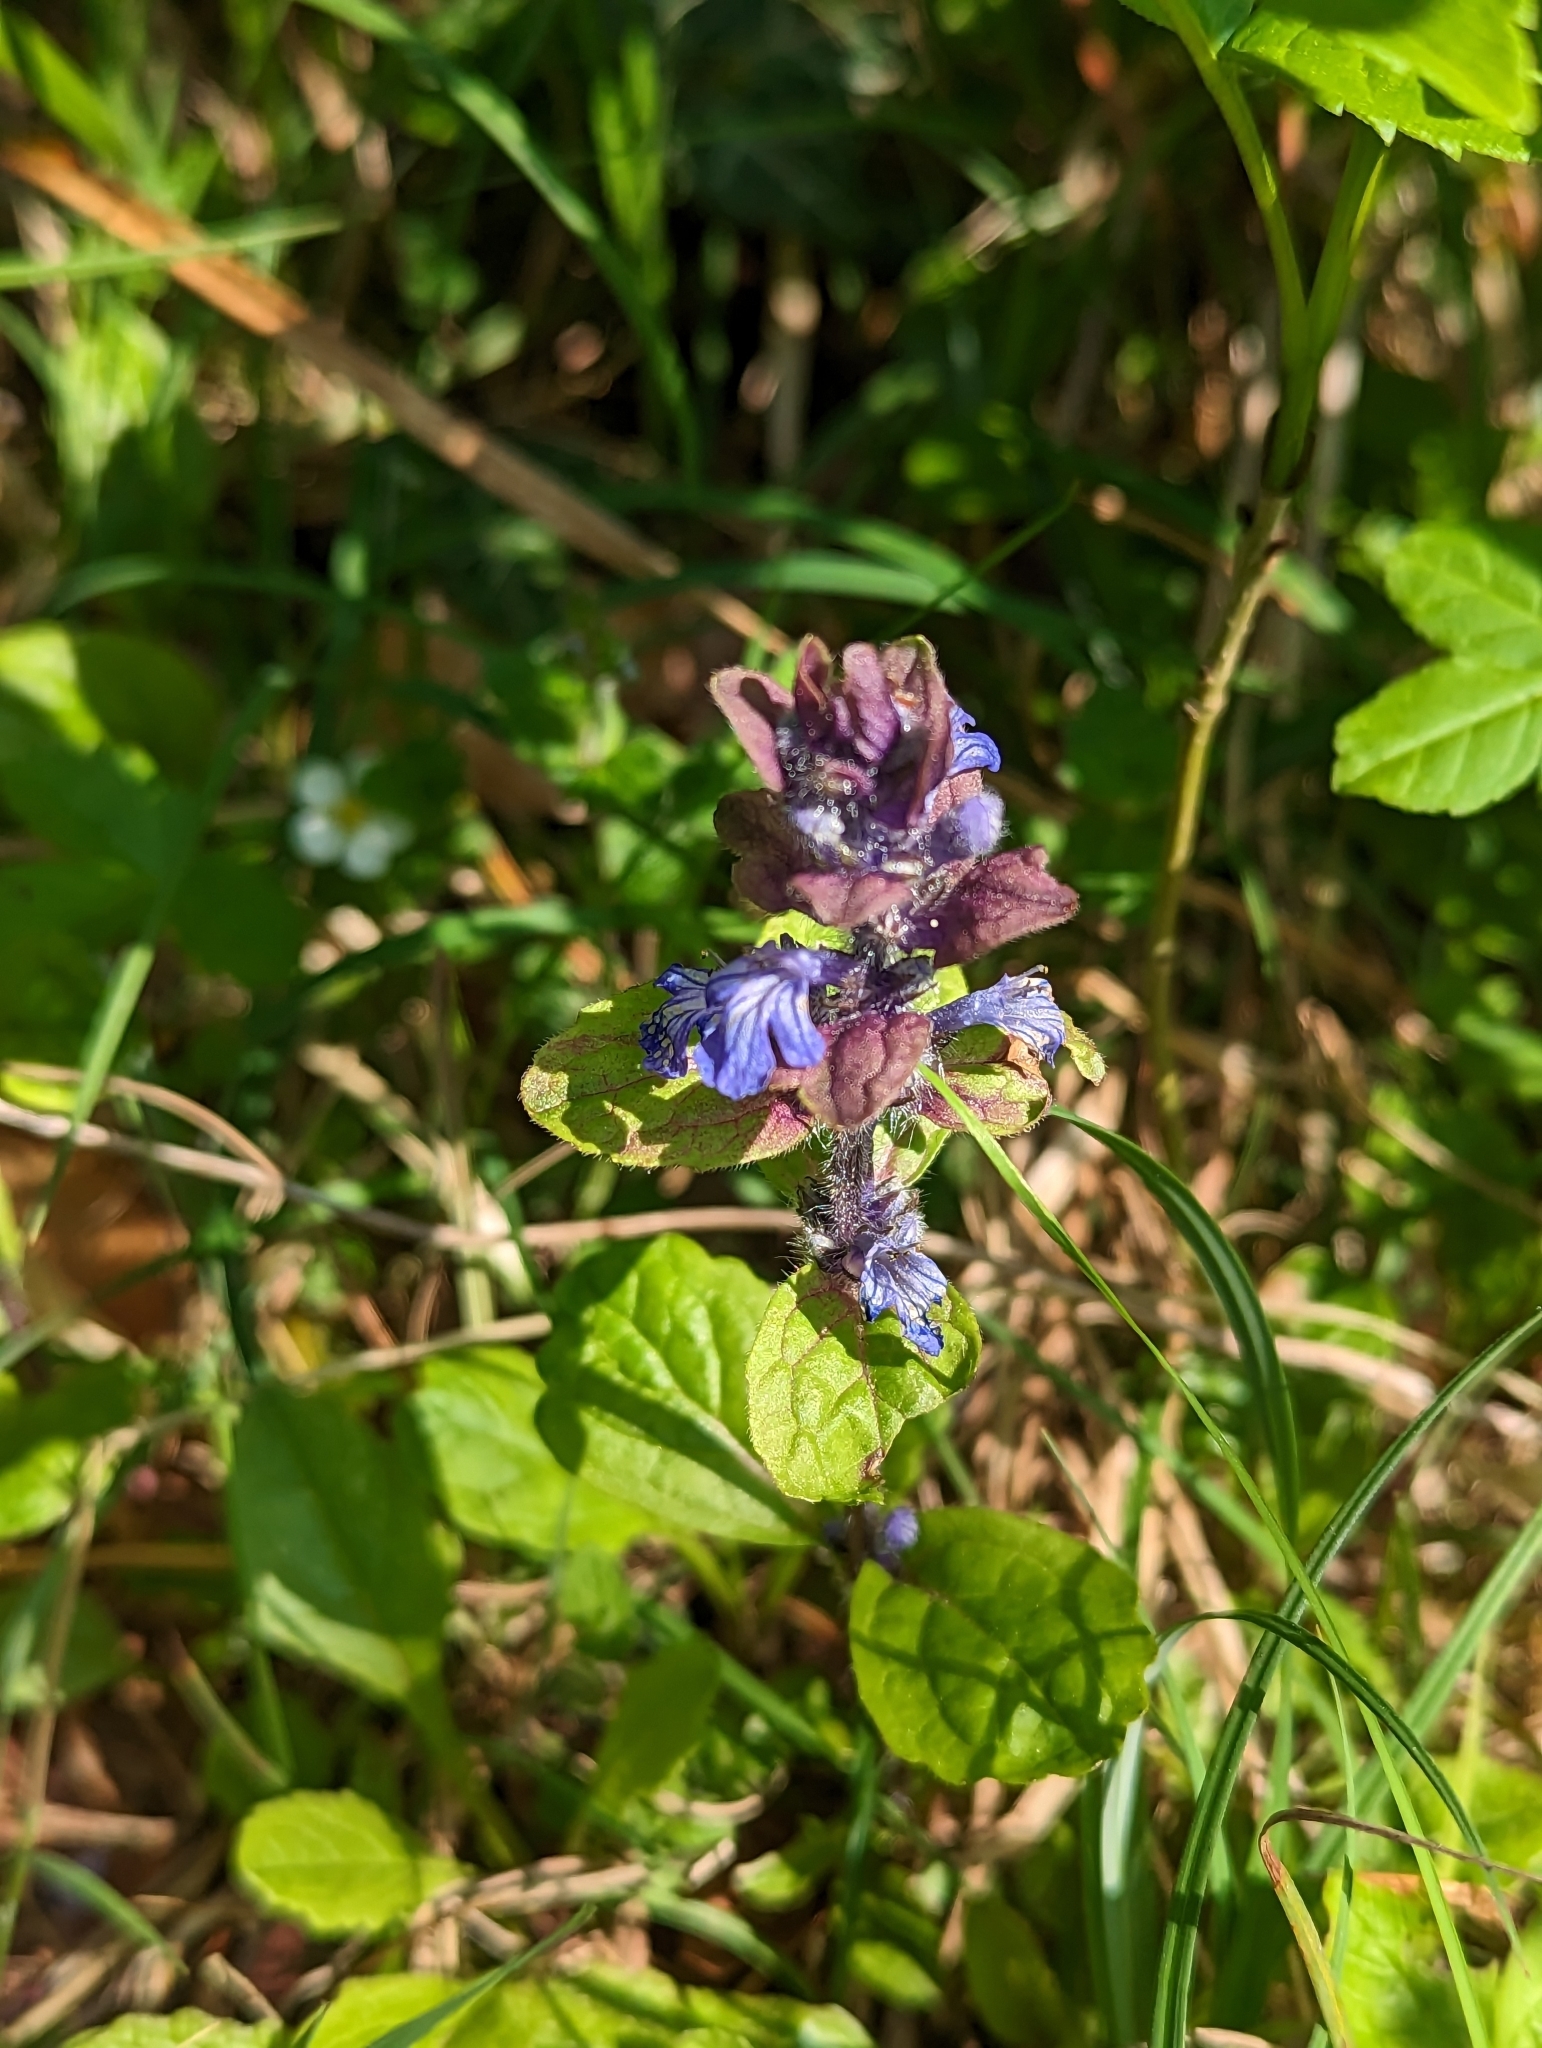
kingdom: Plantae
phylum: Tracheophyta
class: Magnoliopsida
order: Lamiales
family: Lamiaceae
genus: Ajuga
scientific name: Ajuga reptans
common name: Bugle
